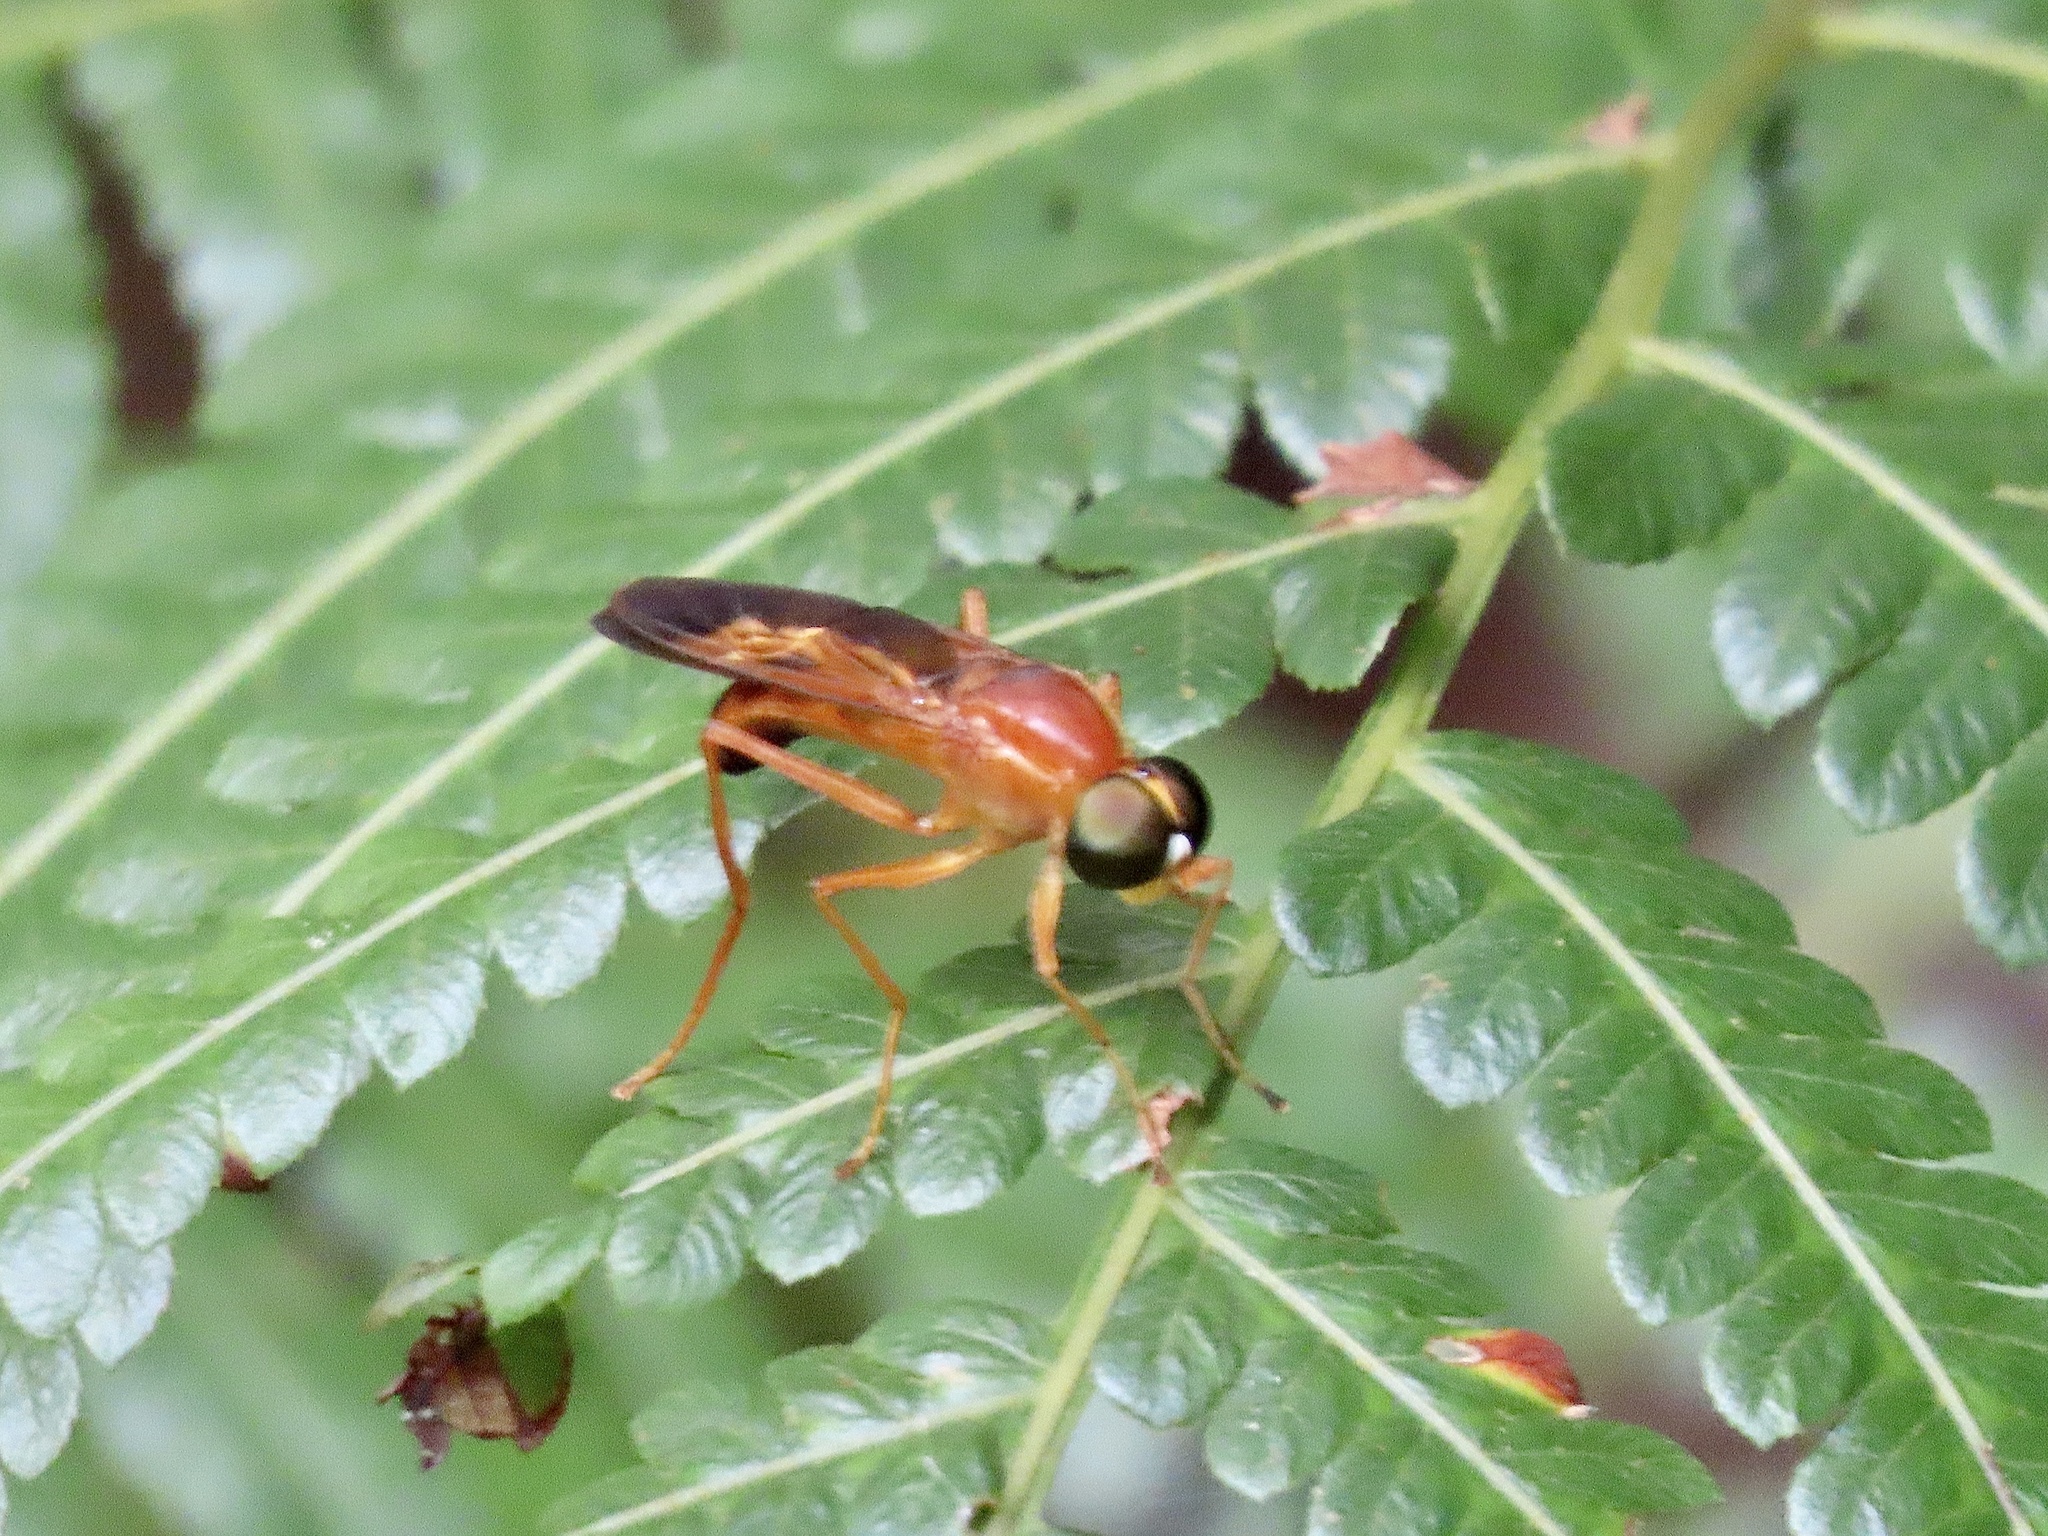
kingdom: Animalia
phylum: Arthropoda
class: Insecta
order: Diptera
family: Stratiomyidae
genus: Ptecticus
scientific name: Ptecticus aurifer
